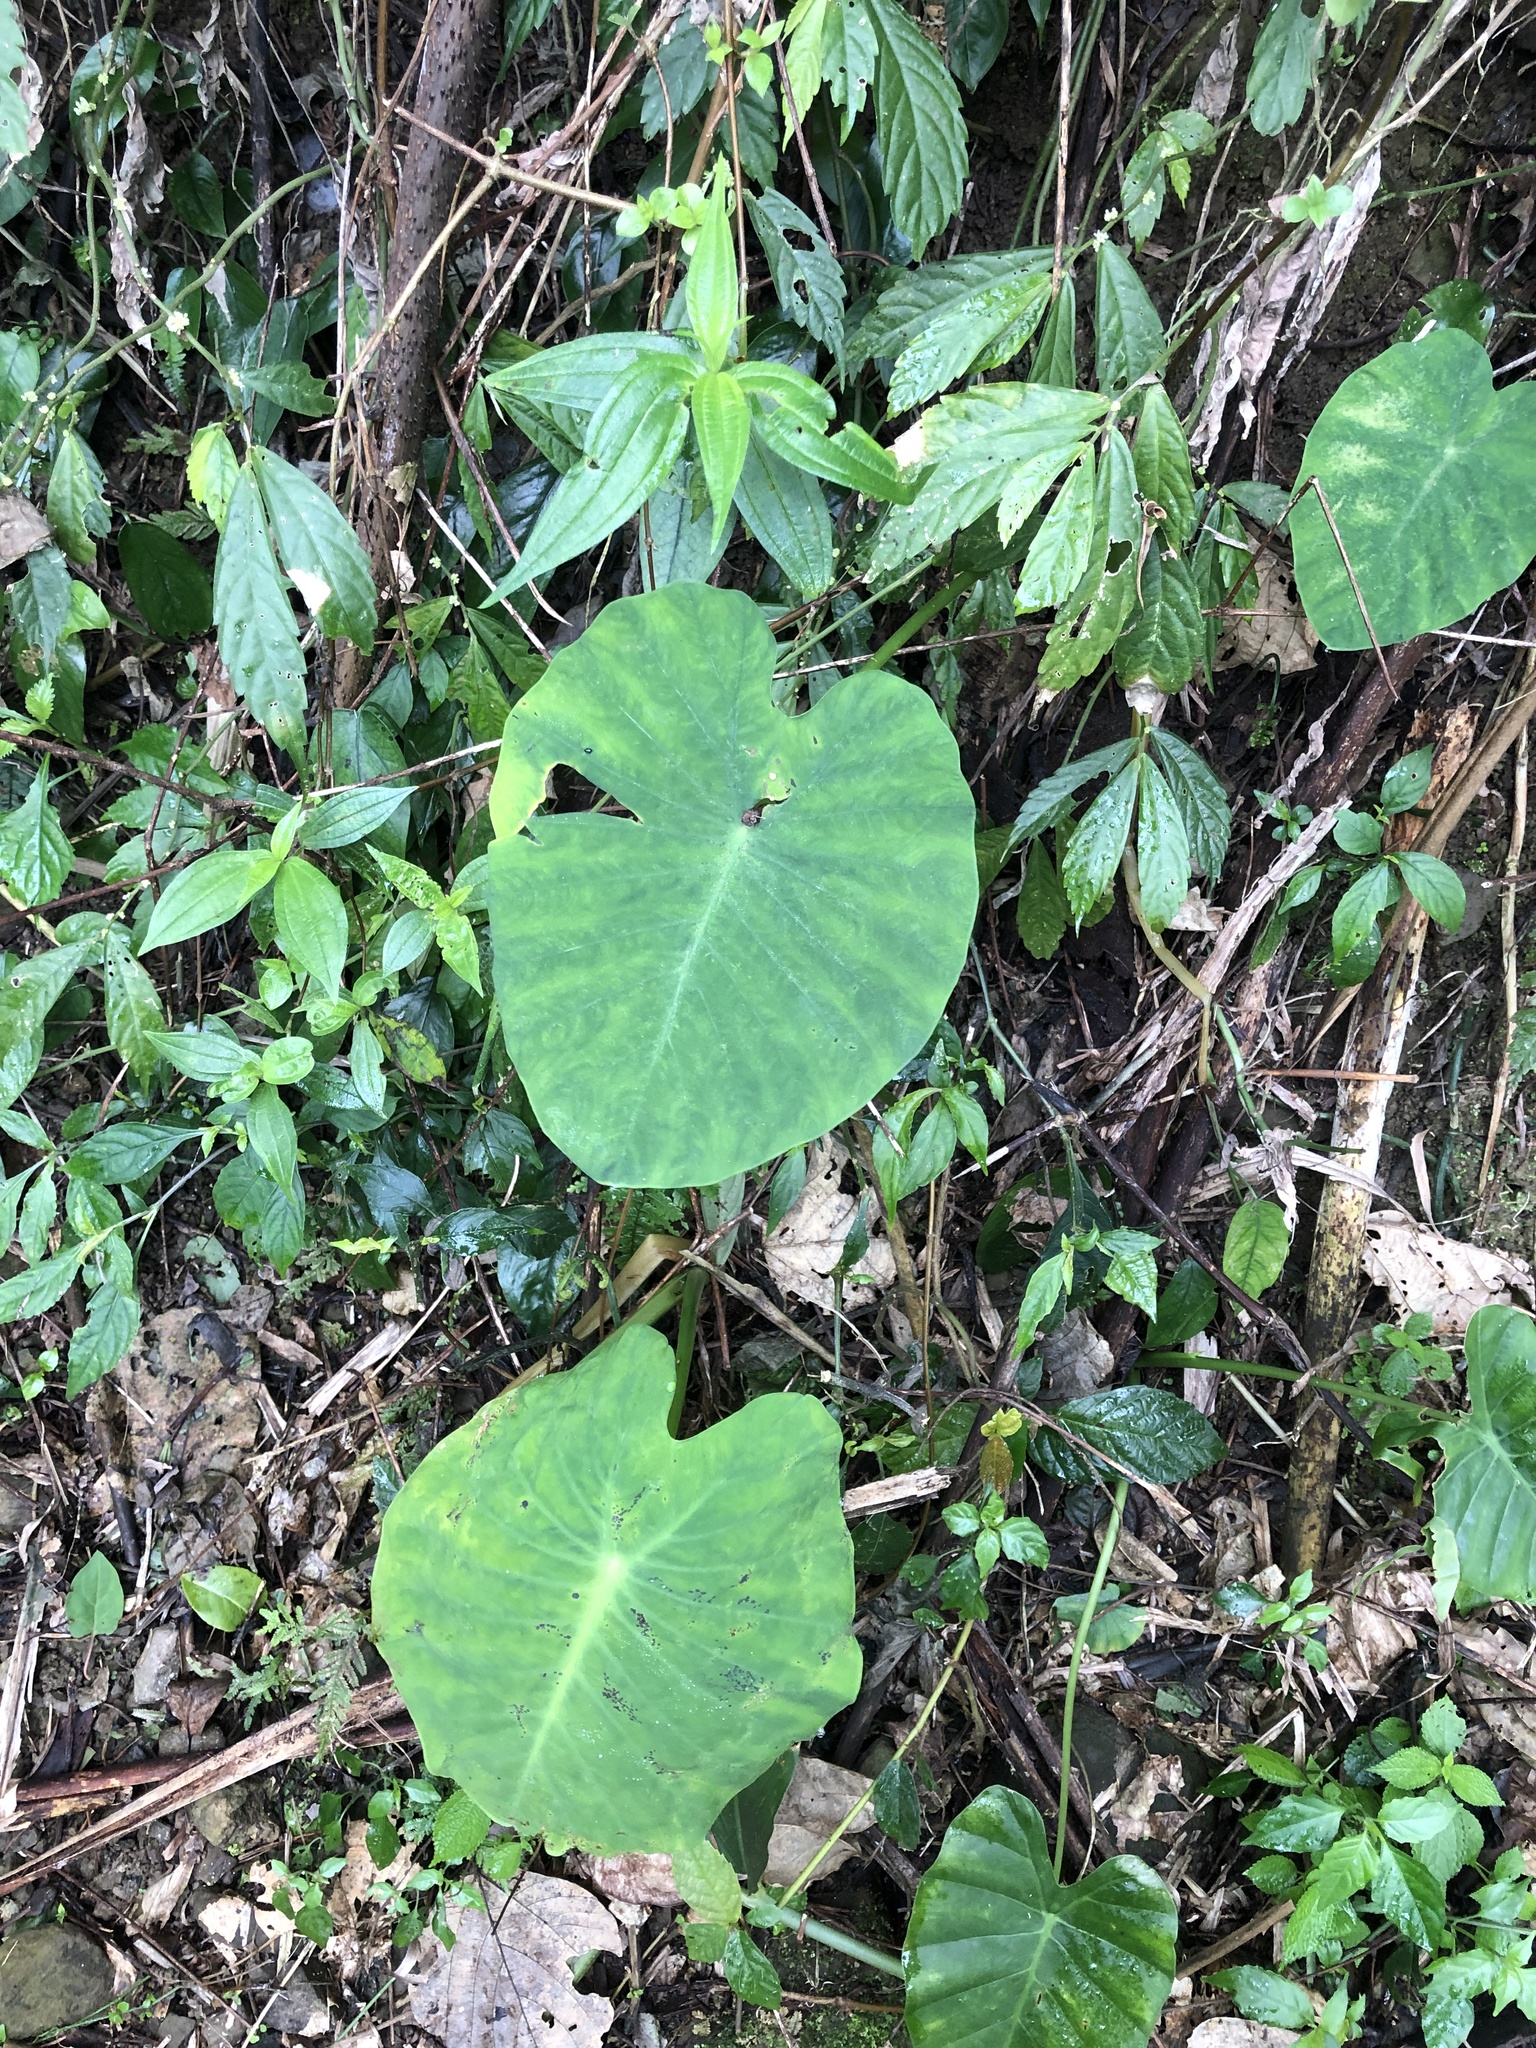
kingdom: Plantae
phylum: Tracheophyta
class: Liliopsida
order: Alismatales
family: Araceae
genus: Colocasia
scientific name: Colocasia esculenta
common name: Taro
